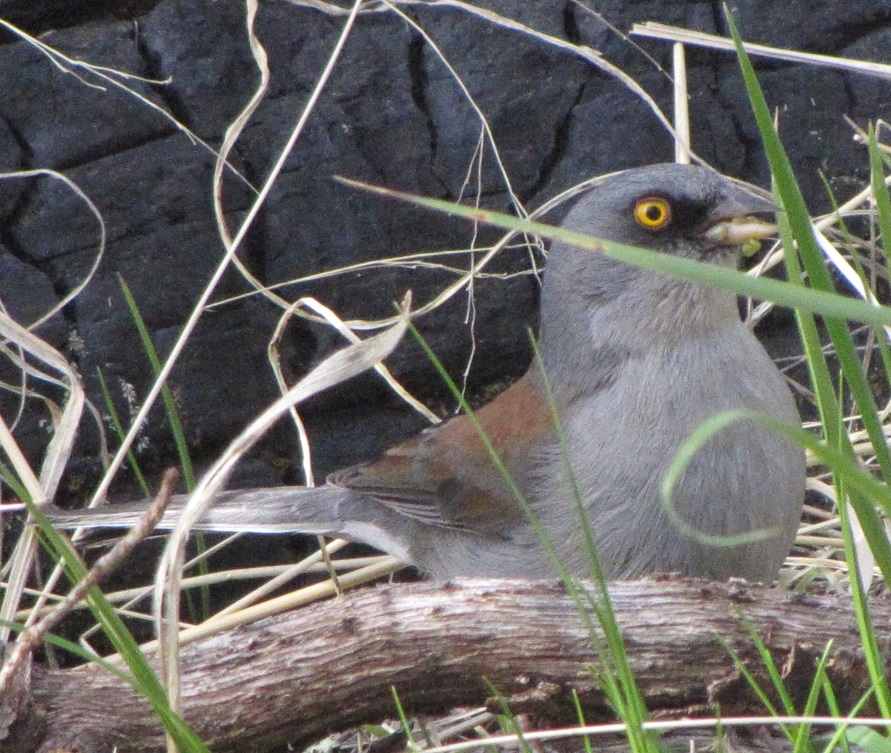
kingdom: Animalia
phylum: Chordata
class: Aves
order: Passeriformes
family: Passerellidae
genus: Junco
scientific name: Junco phaeonotus
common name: Yellow-eyed junco
